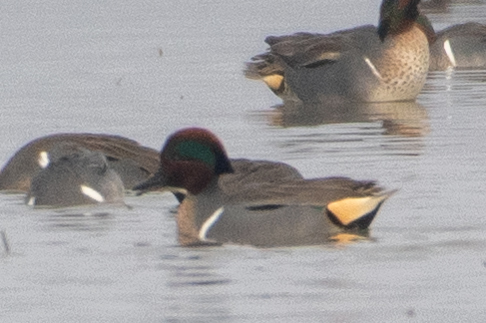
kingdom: Animalia
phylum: Chordata
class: Aves
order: Anseriformes
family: Anatidae
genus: Anas
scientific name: Anas crecca
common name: Eurasian teal
